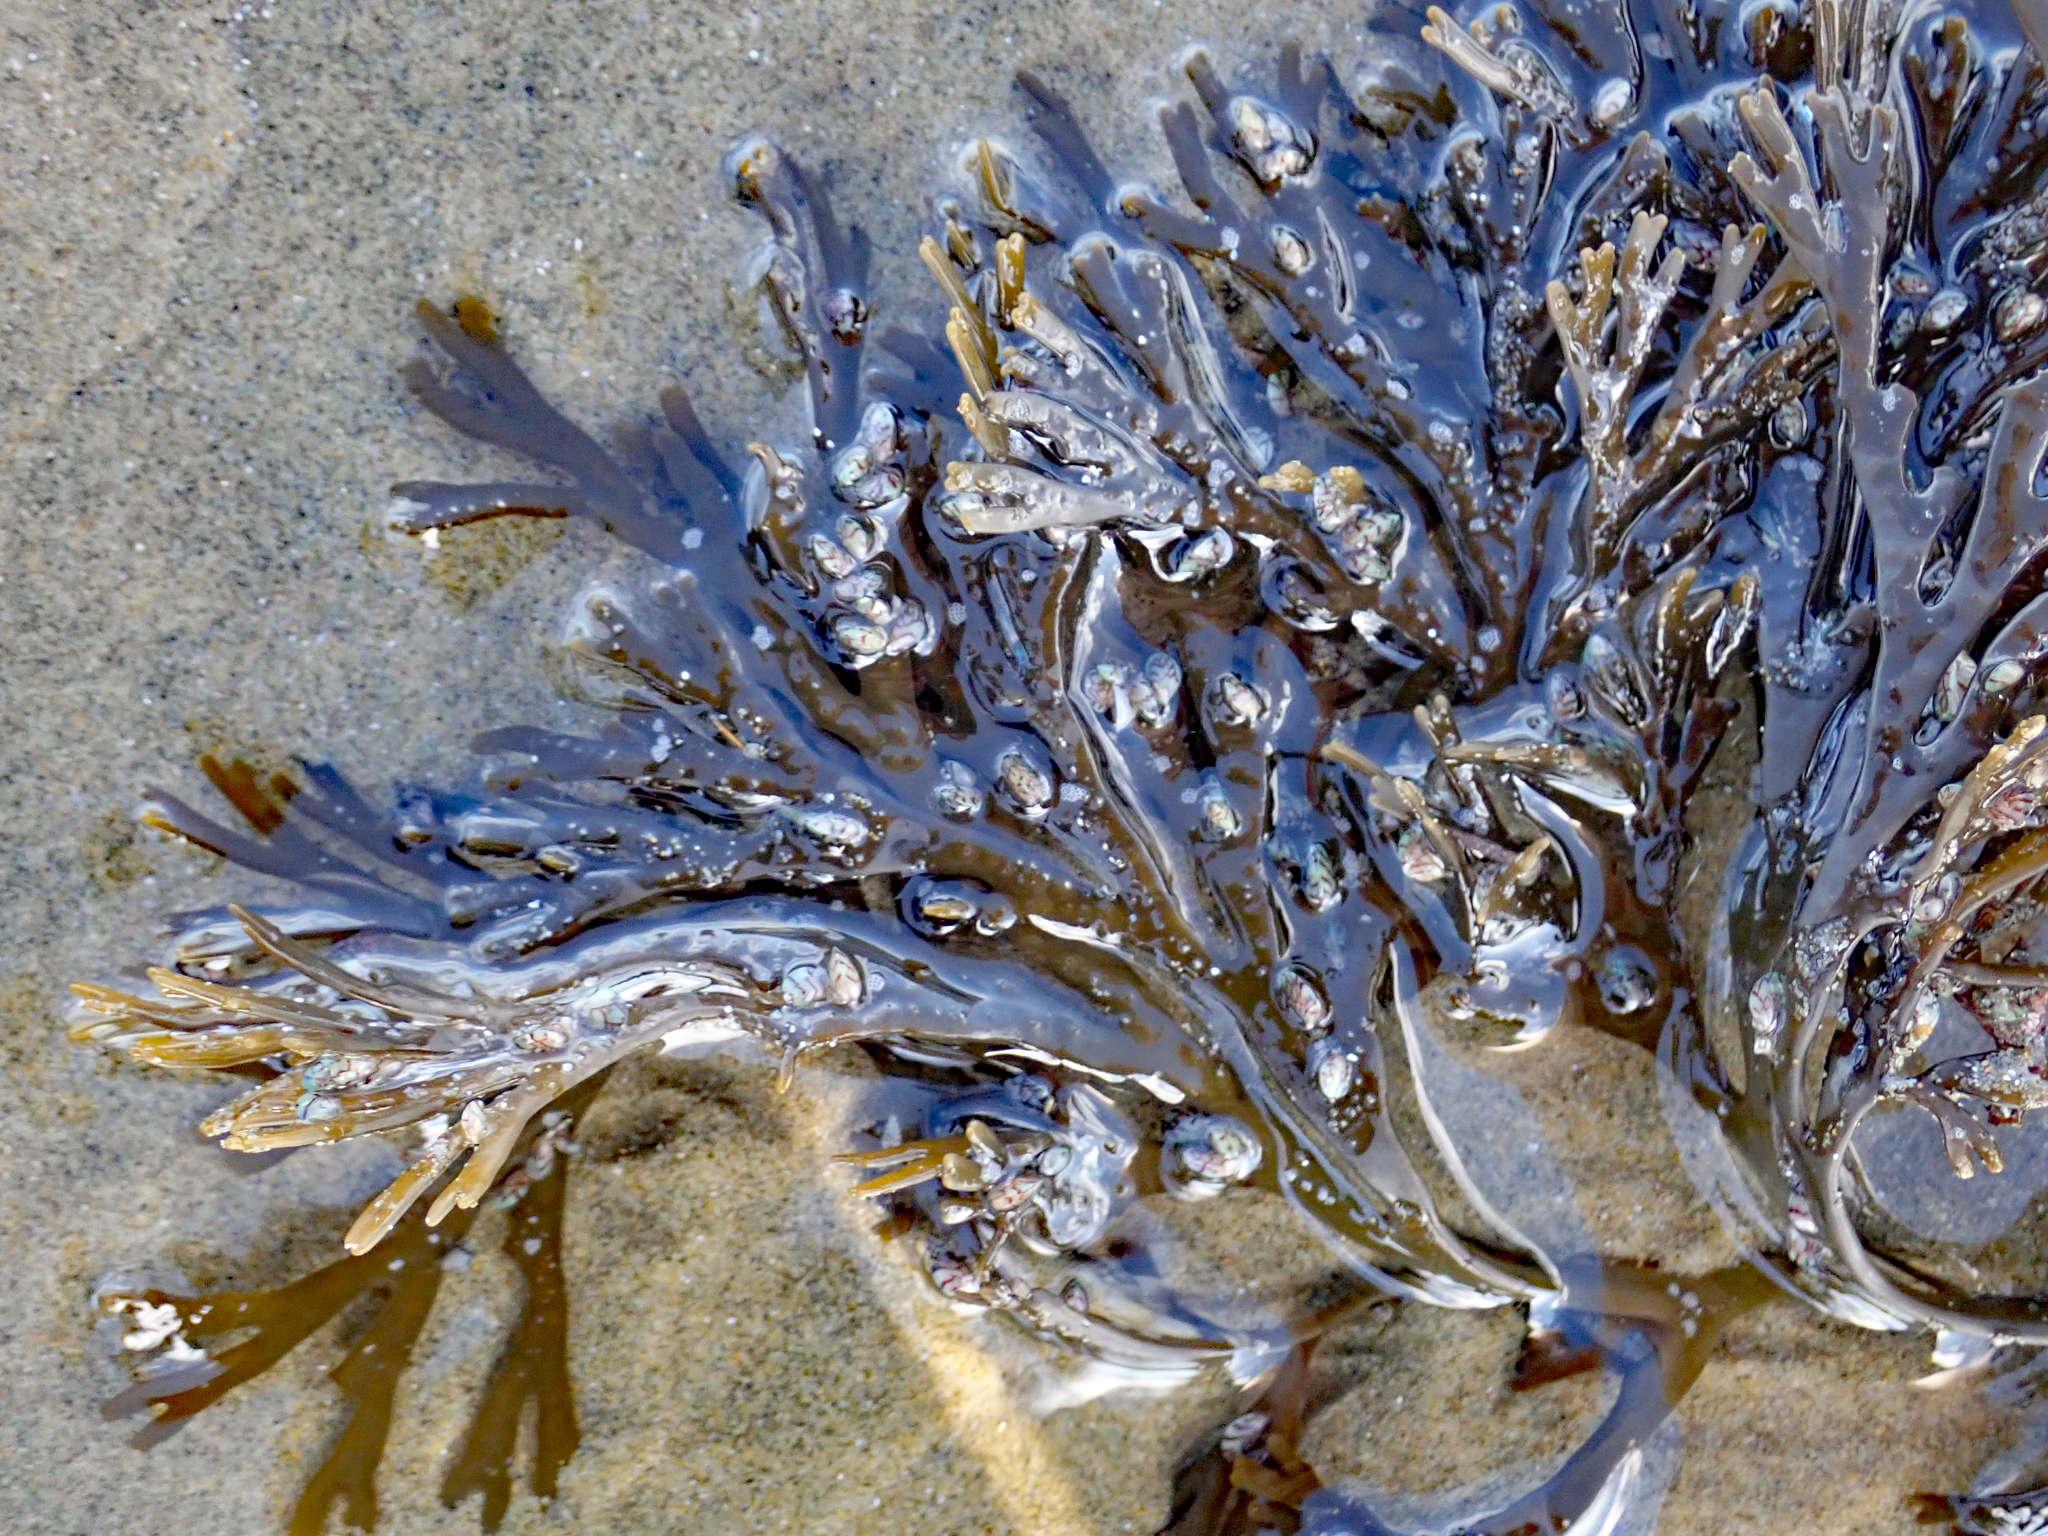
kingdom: Chromista
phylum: Ochrophyta
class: Phaeophyceae
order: Fucales
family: Xiphophoraceae
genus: Xiphophora
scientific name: Xiphophora chondrophylla
